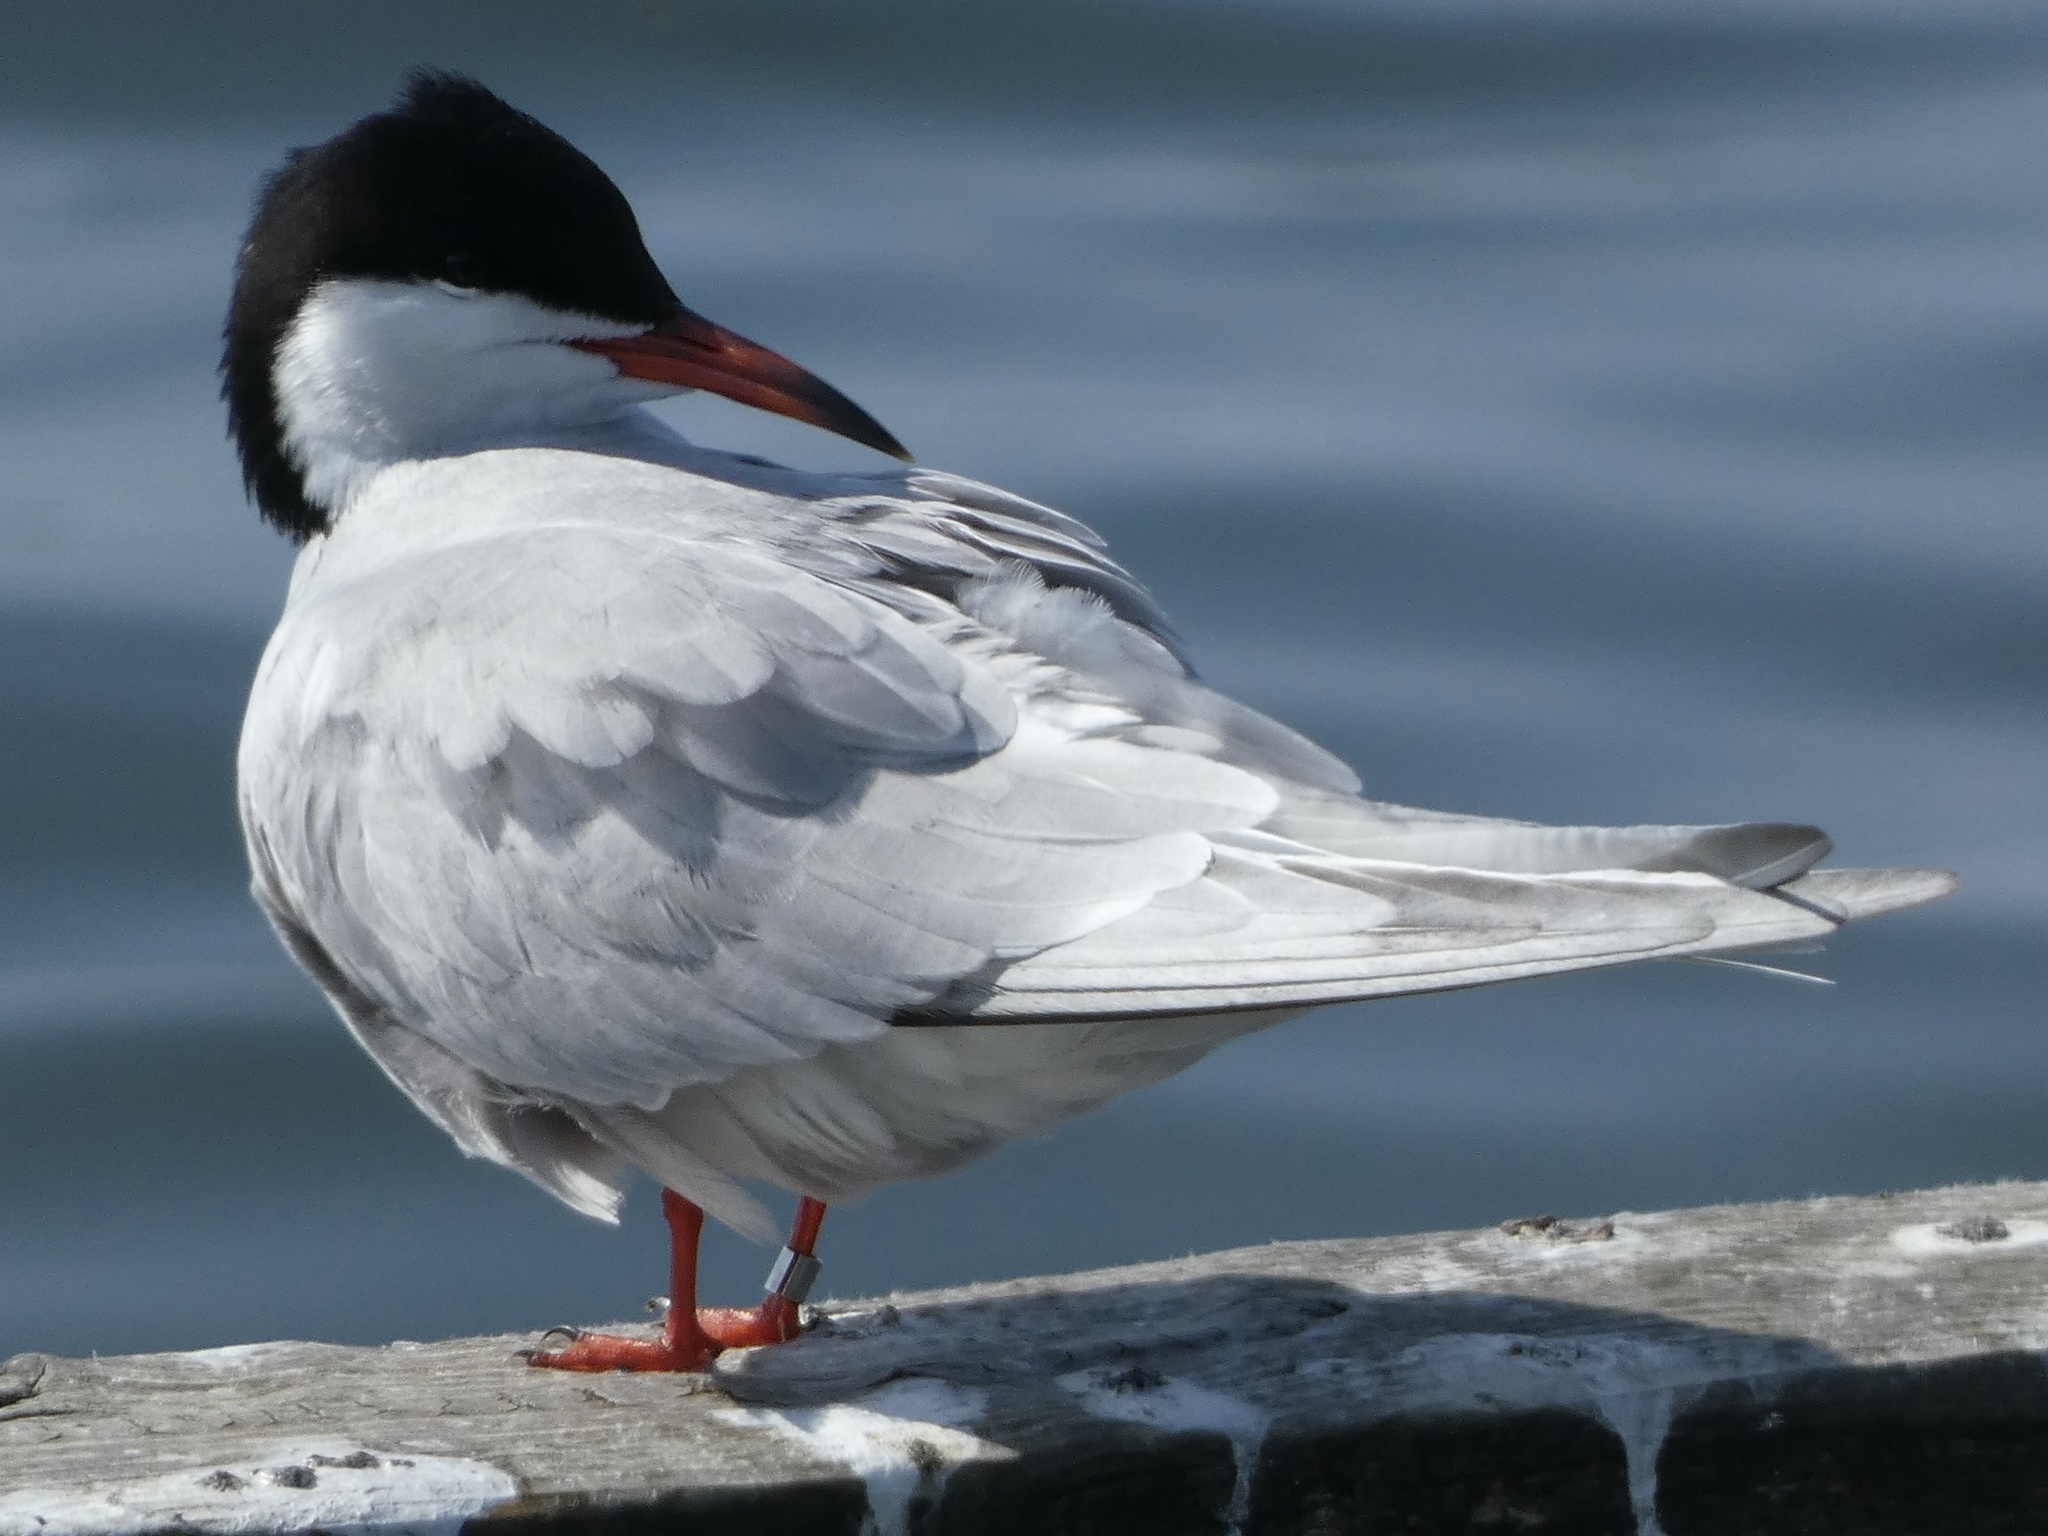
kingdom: Animalia
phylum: Chordata
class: Aves
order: Charadriiformes
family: Laridae
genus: Sterna
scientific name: Sterna hirundo
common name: Common tern
